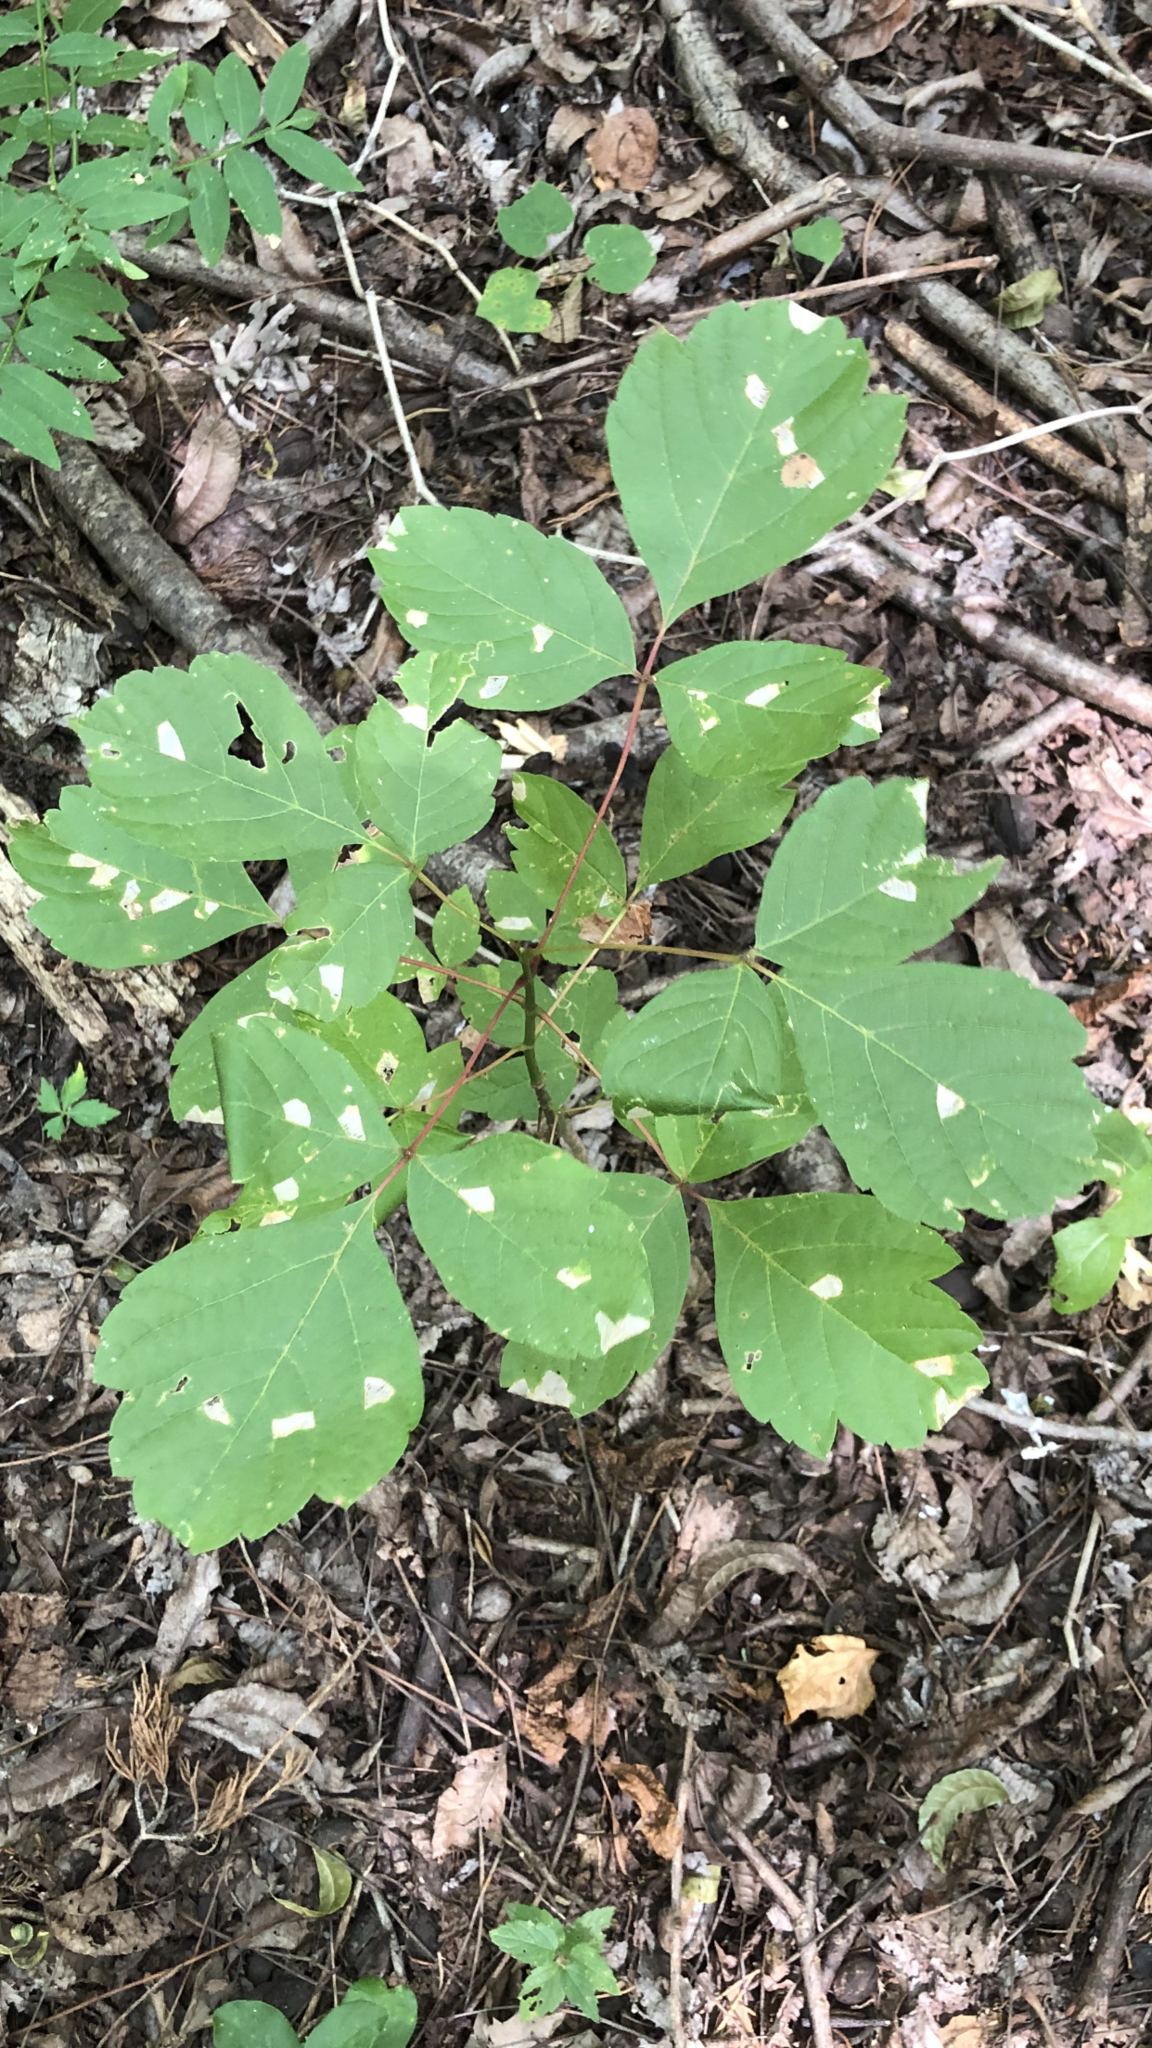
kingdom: Plantae
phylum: Tracheophyta
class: Magnoliopsida
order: Sapindales
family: Sapindaceae
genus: Acer
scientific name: Acer negundo
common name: Ashleaf maple
